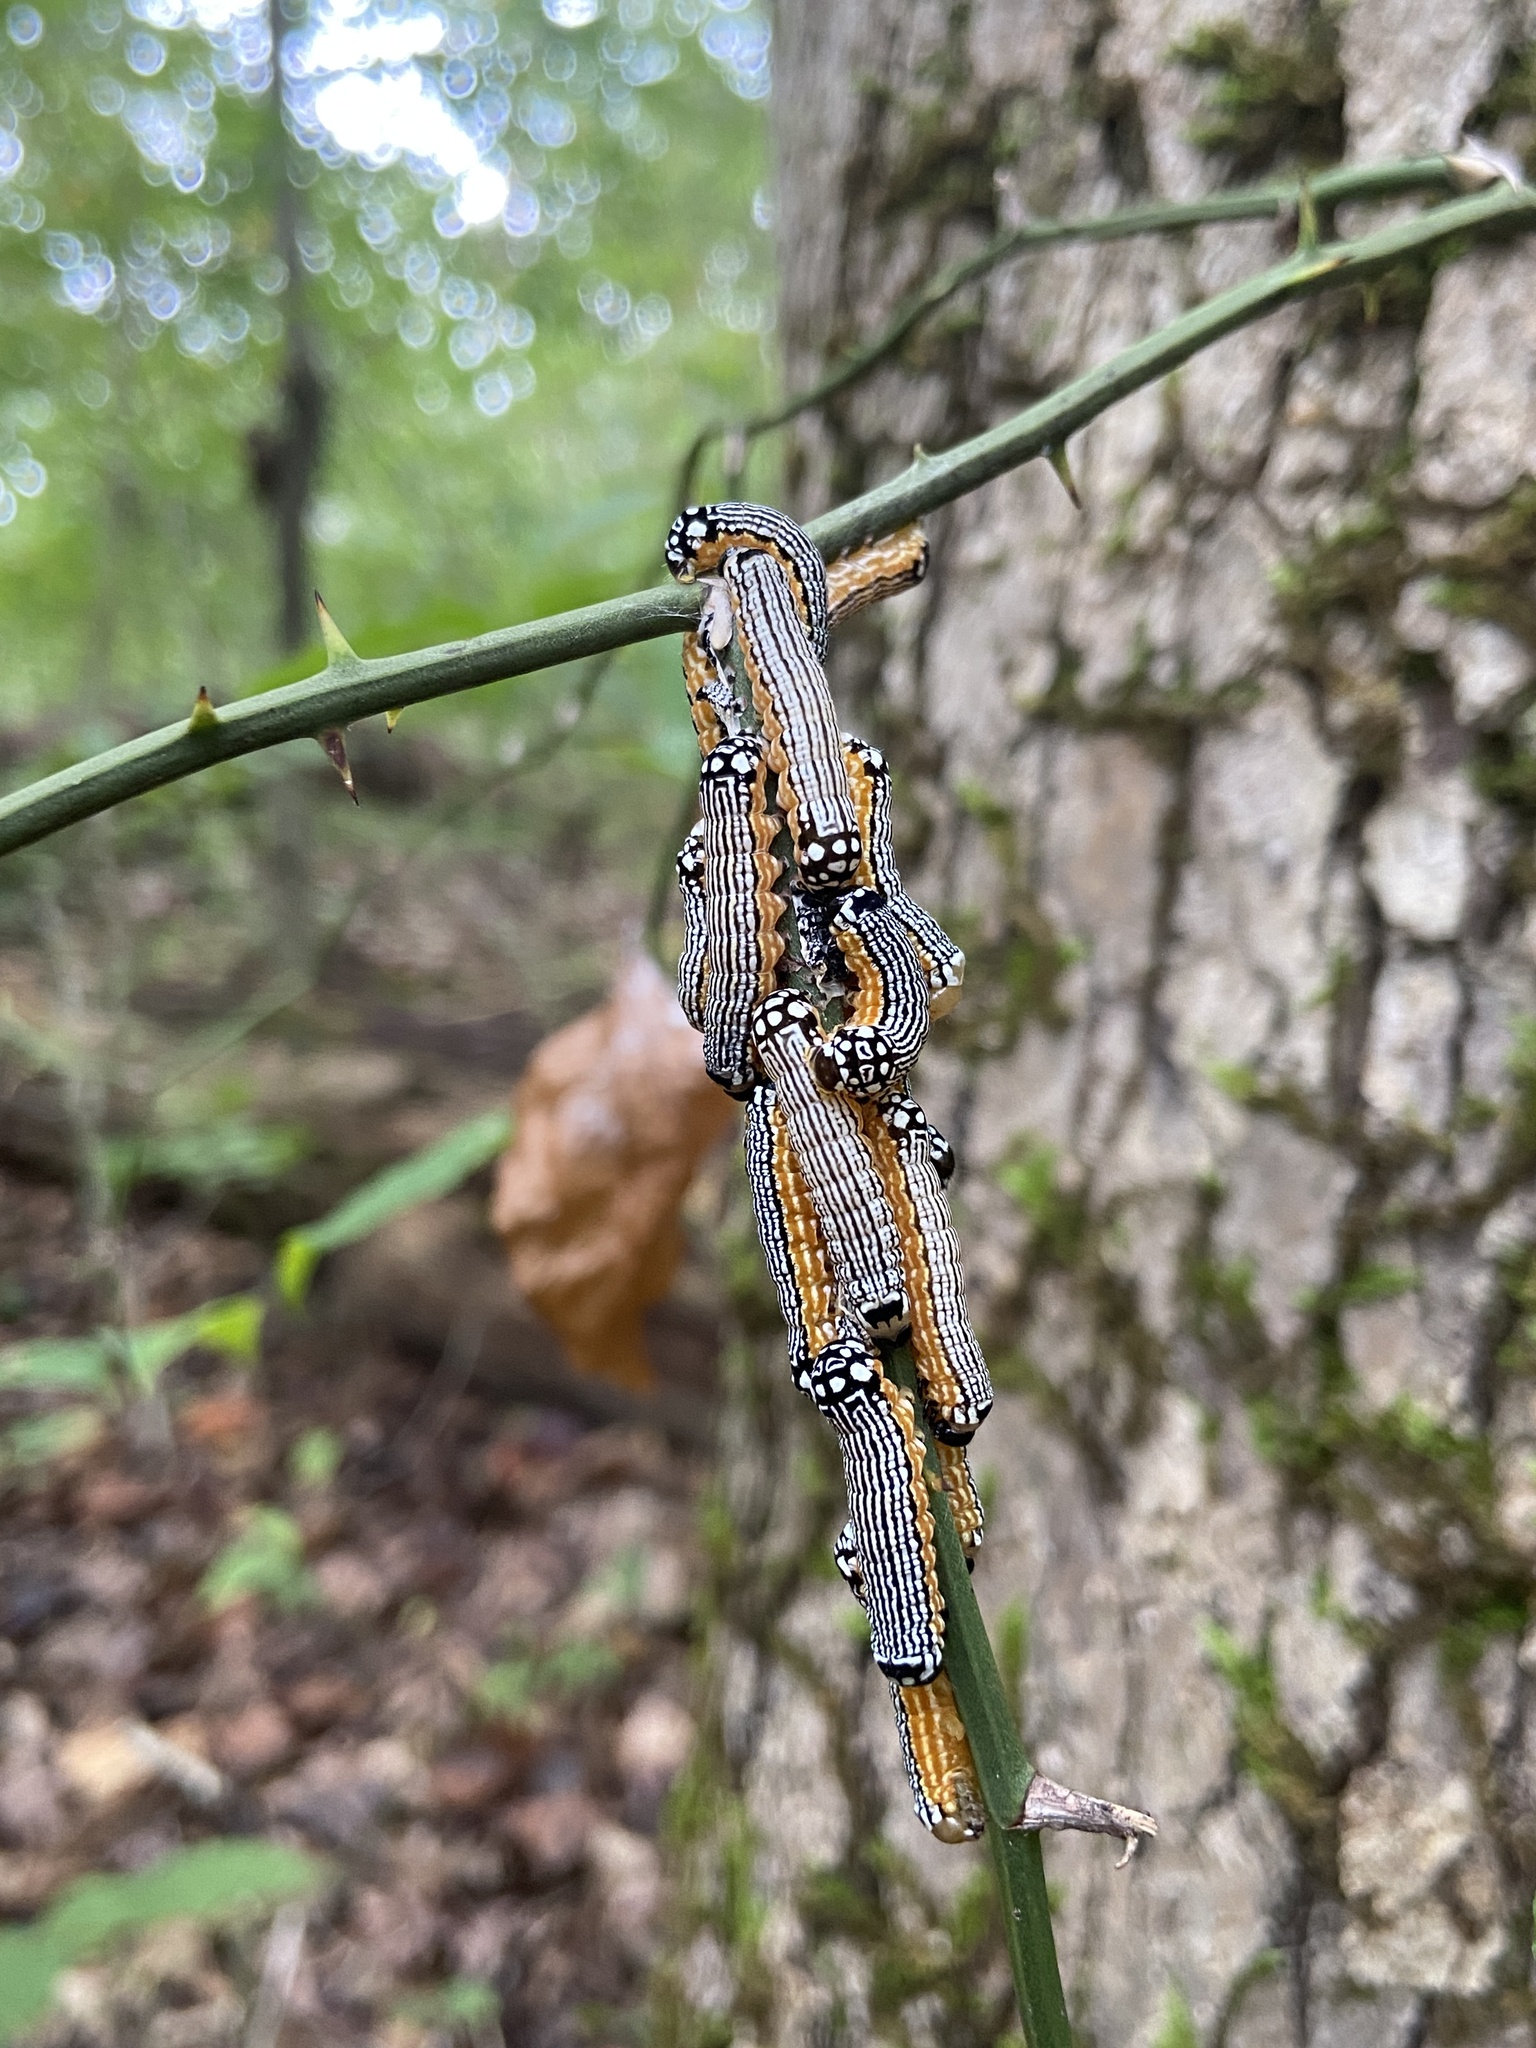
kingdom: Animalia
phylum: Arthropoda
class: Insecta
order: Lepidoptera
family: Noctuidae
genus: Phosphila
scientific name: Phosphila turbulenta
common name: Turbulent phosphila moth
